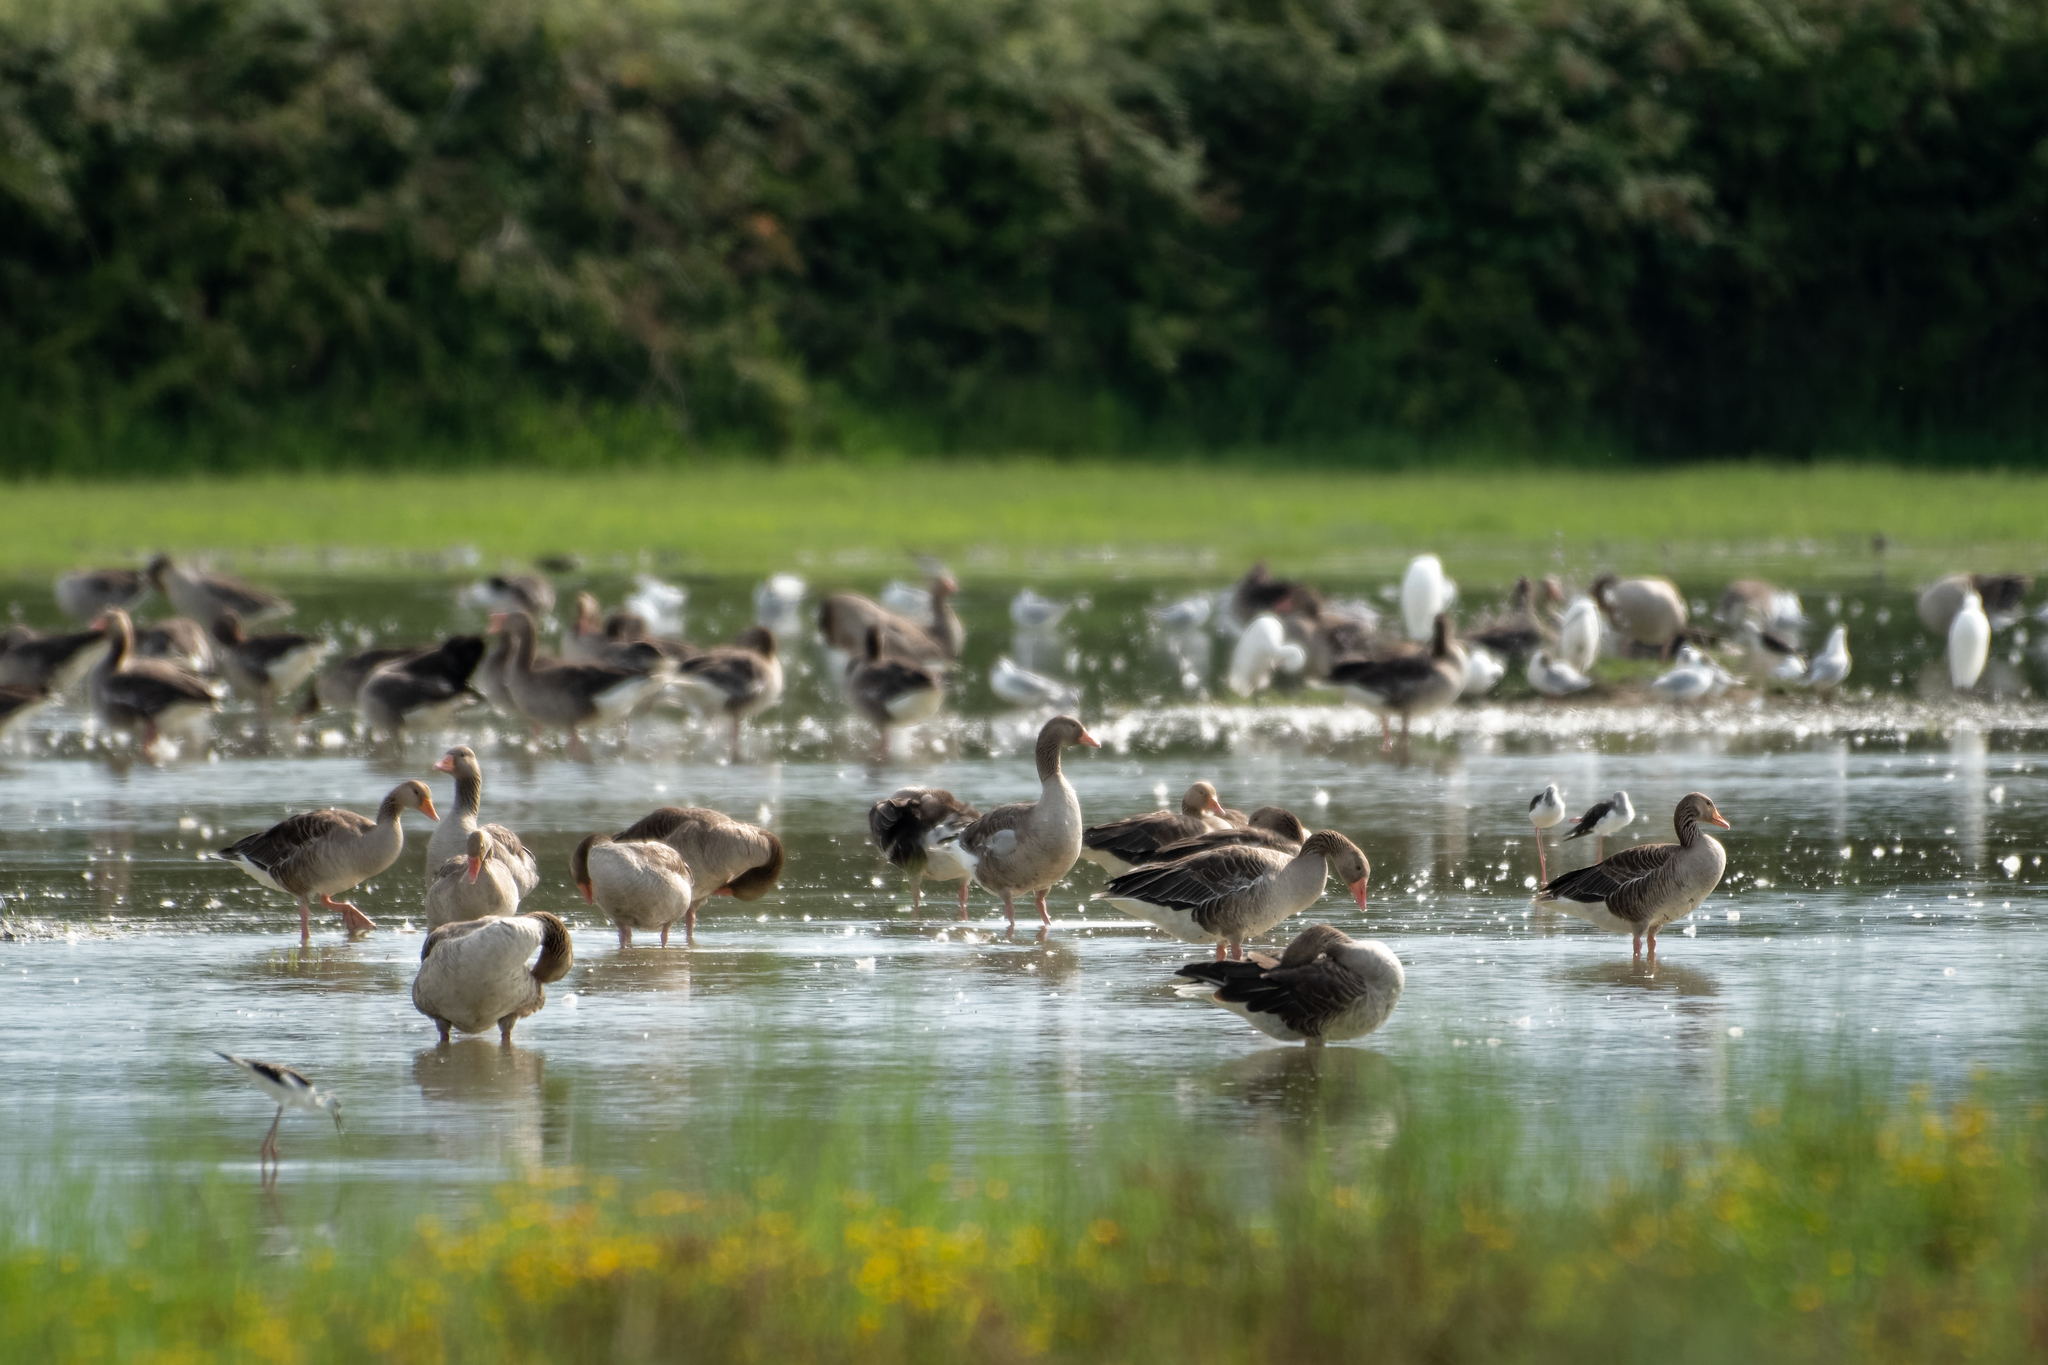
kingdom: Animalia
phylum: Chordata
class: Aves
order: Anseriformes
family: Anatidae
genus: Anser
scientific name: Anser anser
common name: Greylag goose
